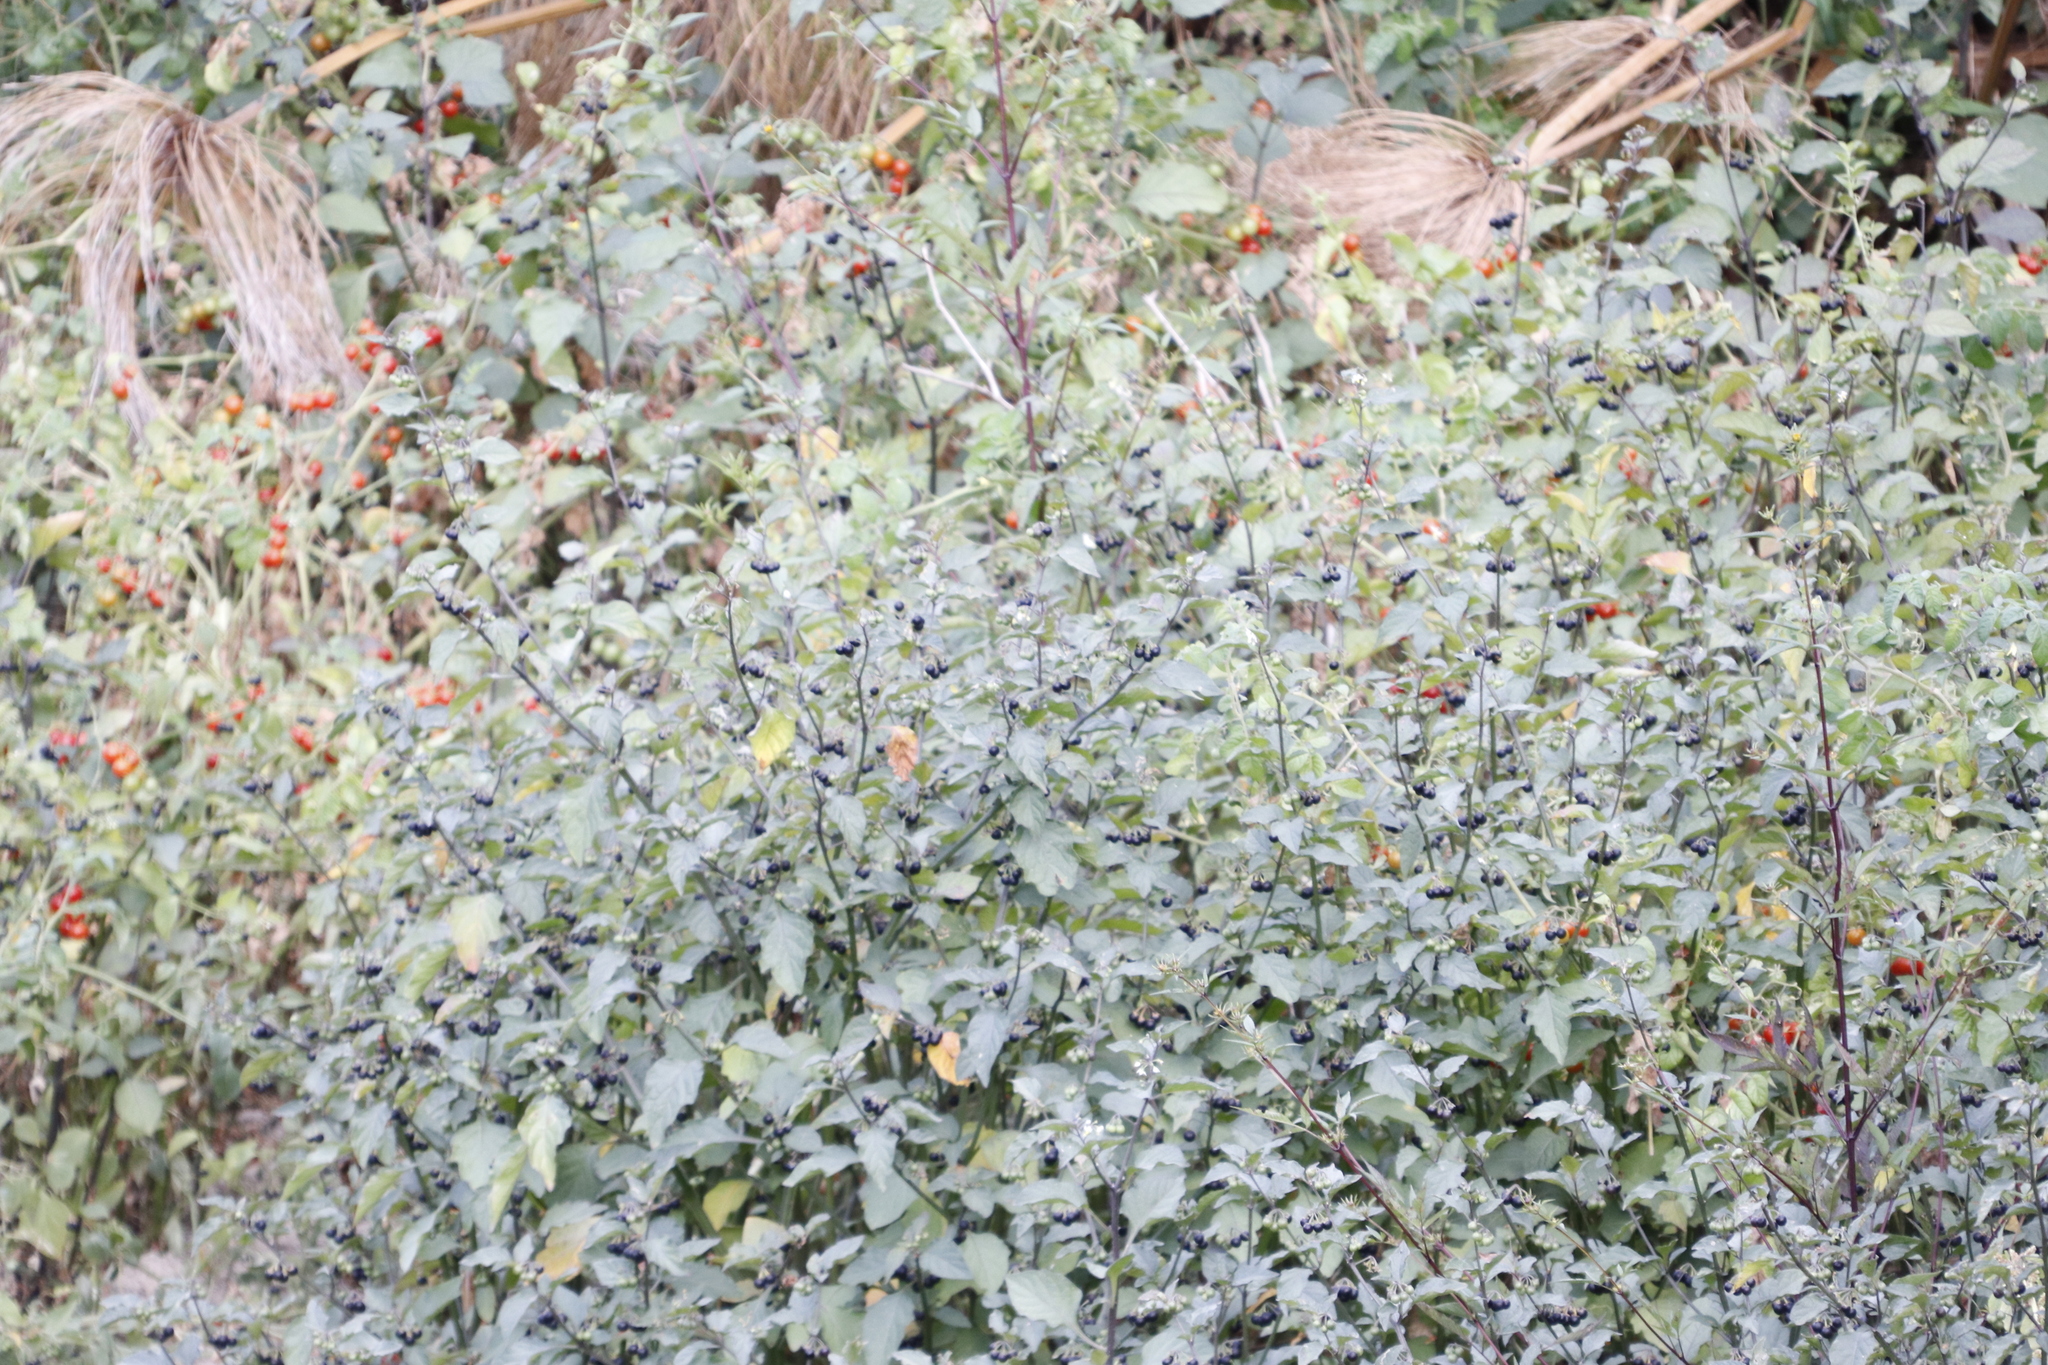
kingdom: Plantae
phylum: Tracheophyta
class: Magnoliopsida
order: Solanales
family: Solanaceae
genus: Solanum
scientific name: Solanum nigrum
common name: Black nightshade
